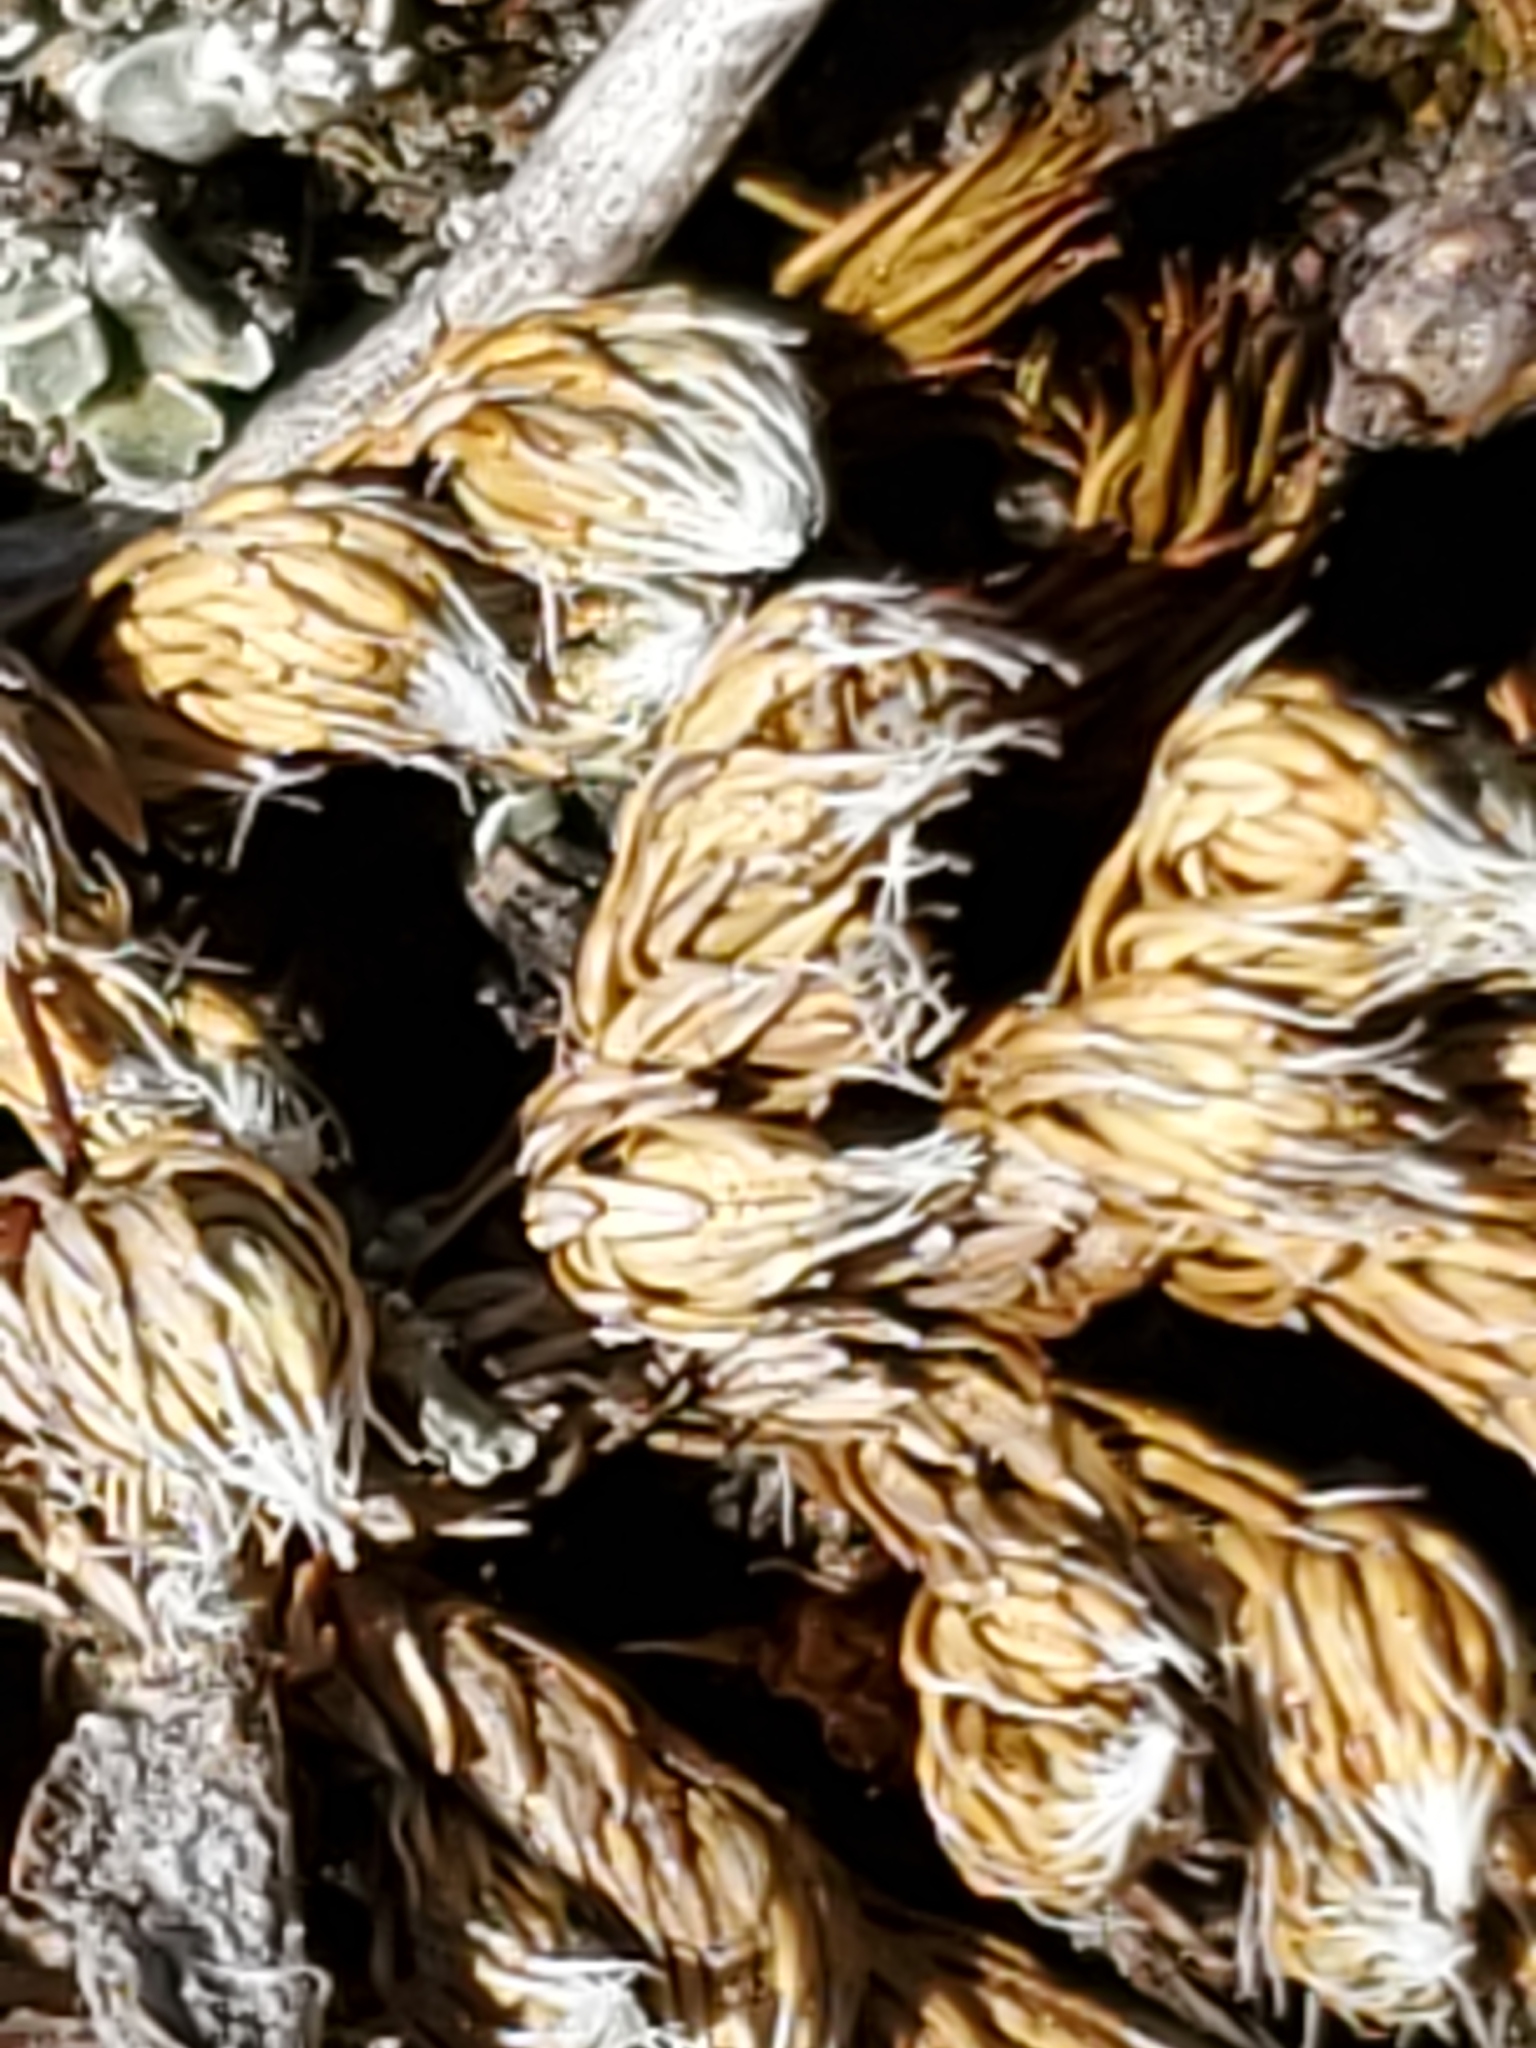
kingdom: Plantae
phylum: Tracheophyta
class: Lycopodiopsida
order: Selaginellales
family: Selaginellaceae
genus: Selaginella
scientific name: Selaginella densa
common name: Mountain spike-moss
